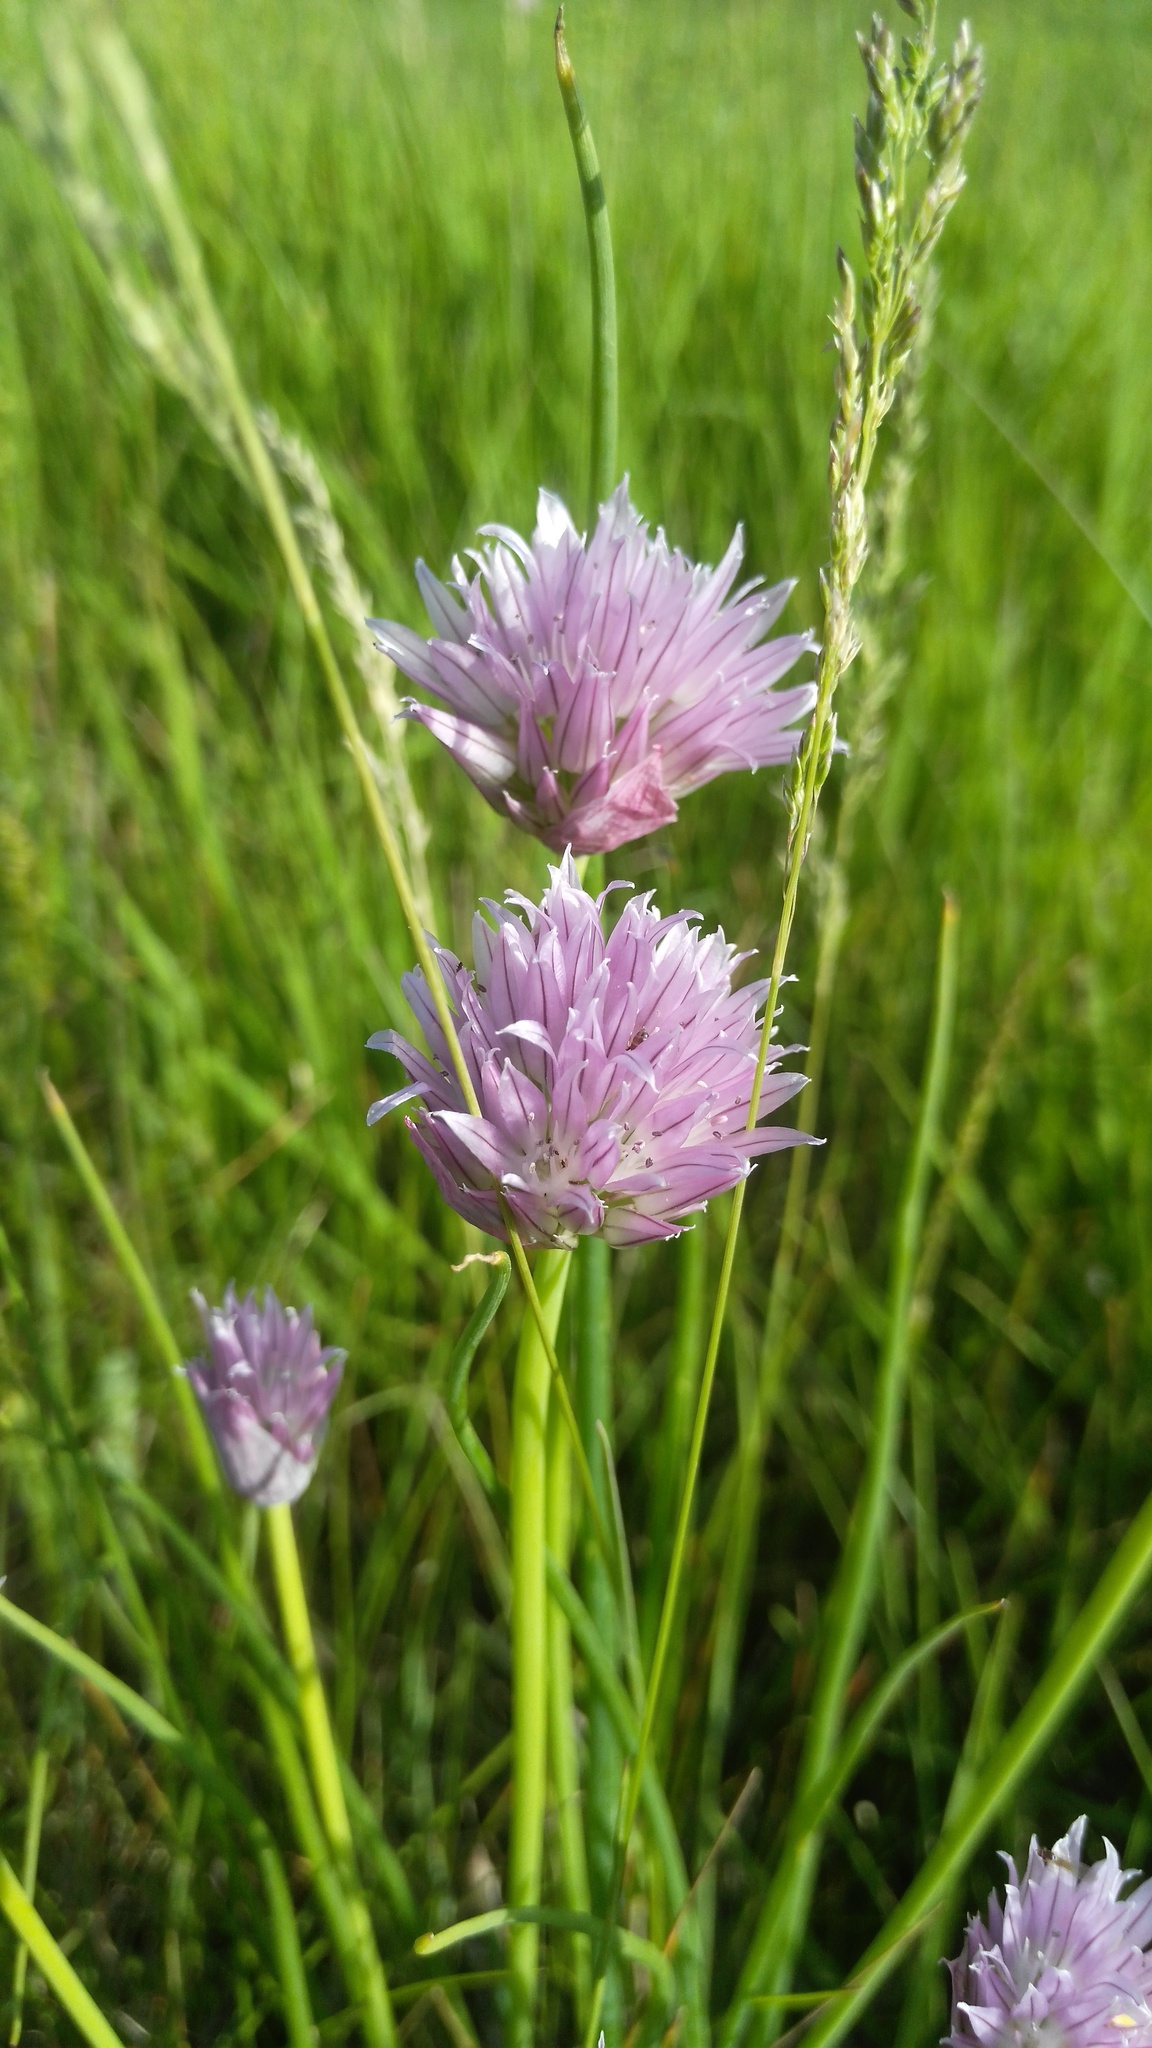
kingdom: Plantae
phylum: Tracheophyta
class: Liliopsida
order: Asparagales
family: Amaryllidaceae
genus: Allium
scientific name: Allium schoenoprasum
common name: Chives
